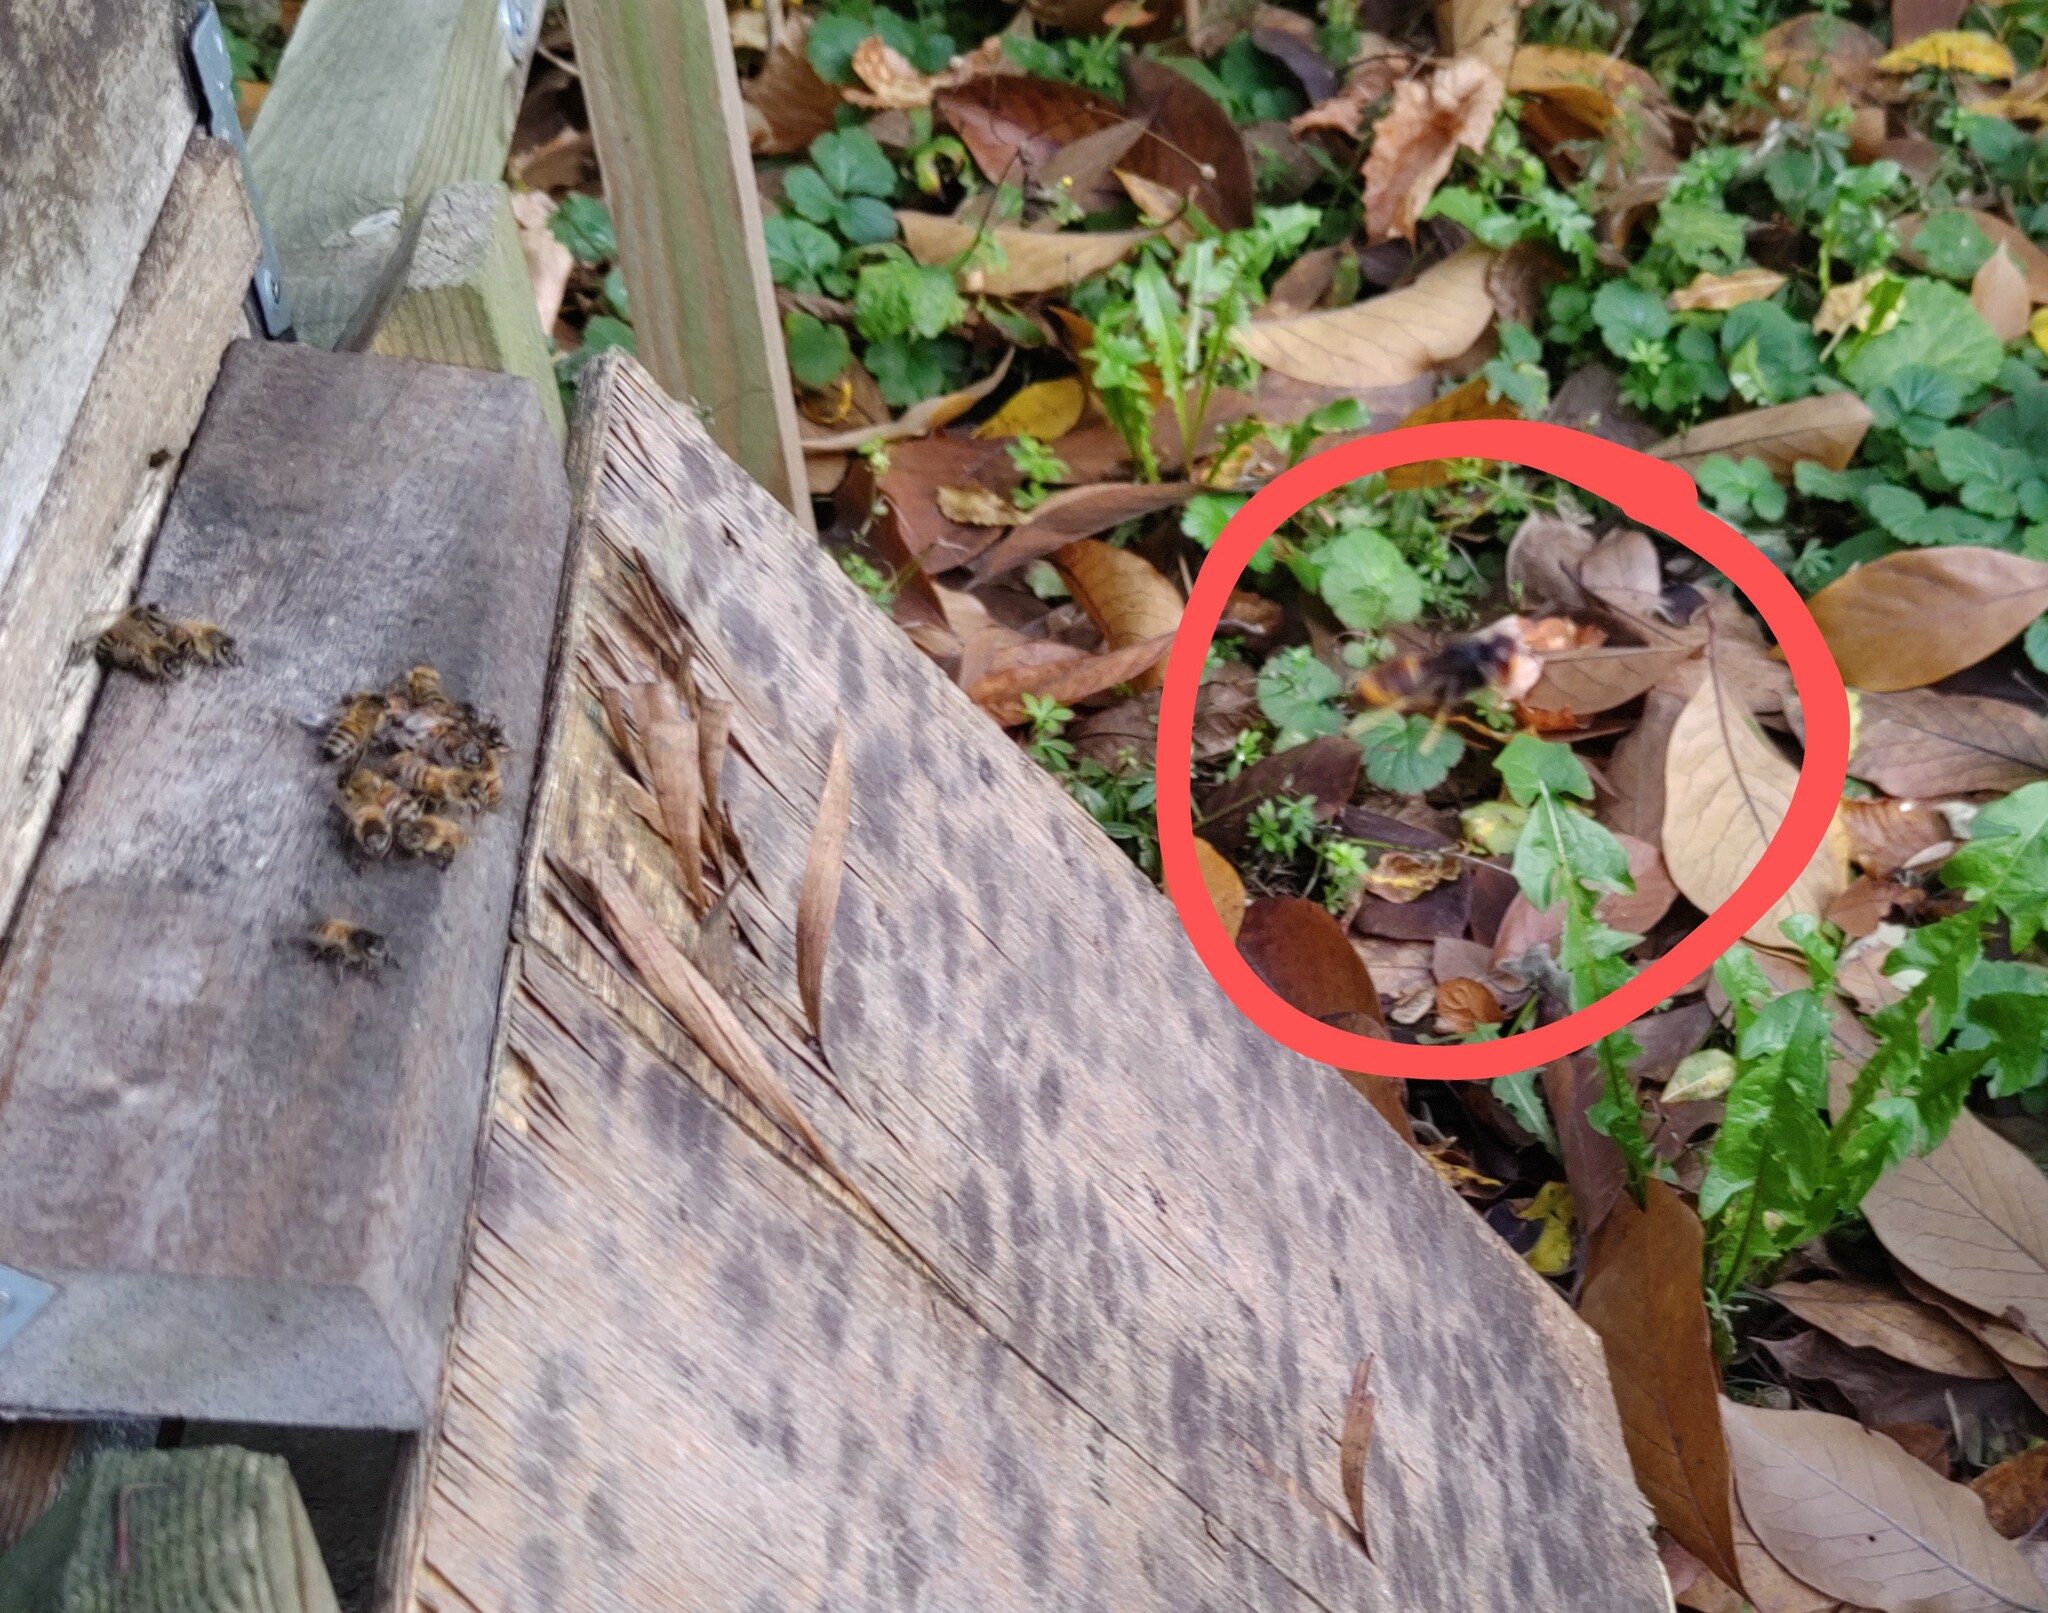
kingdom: Animalia
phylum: Arthropoda
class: Insecta
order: Hymenoptera
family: Vespidae
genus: Vespa
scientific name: Vespa velutina
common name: Asian hornet
